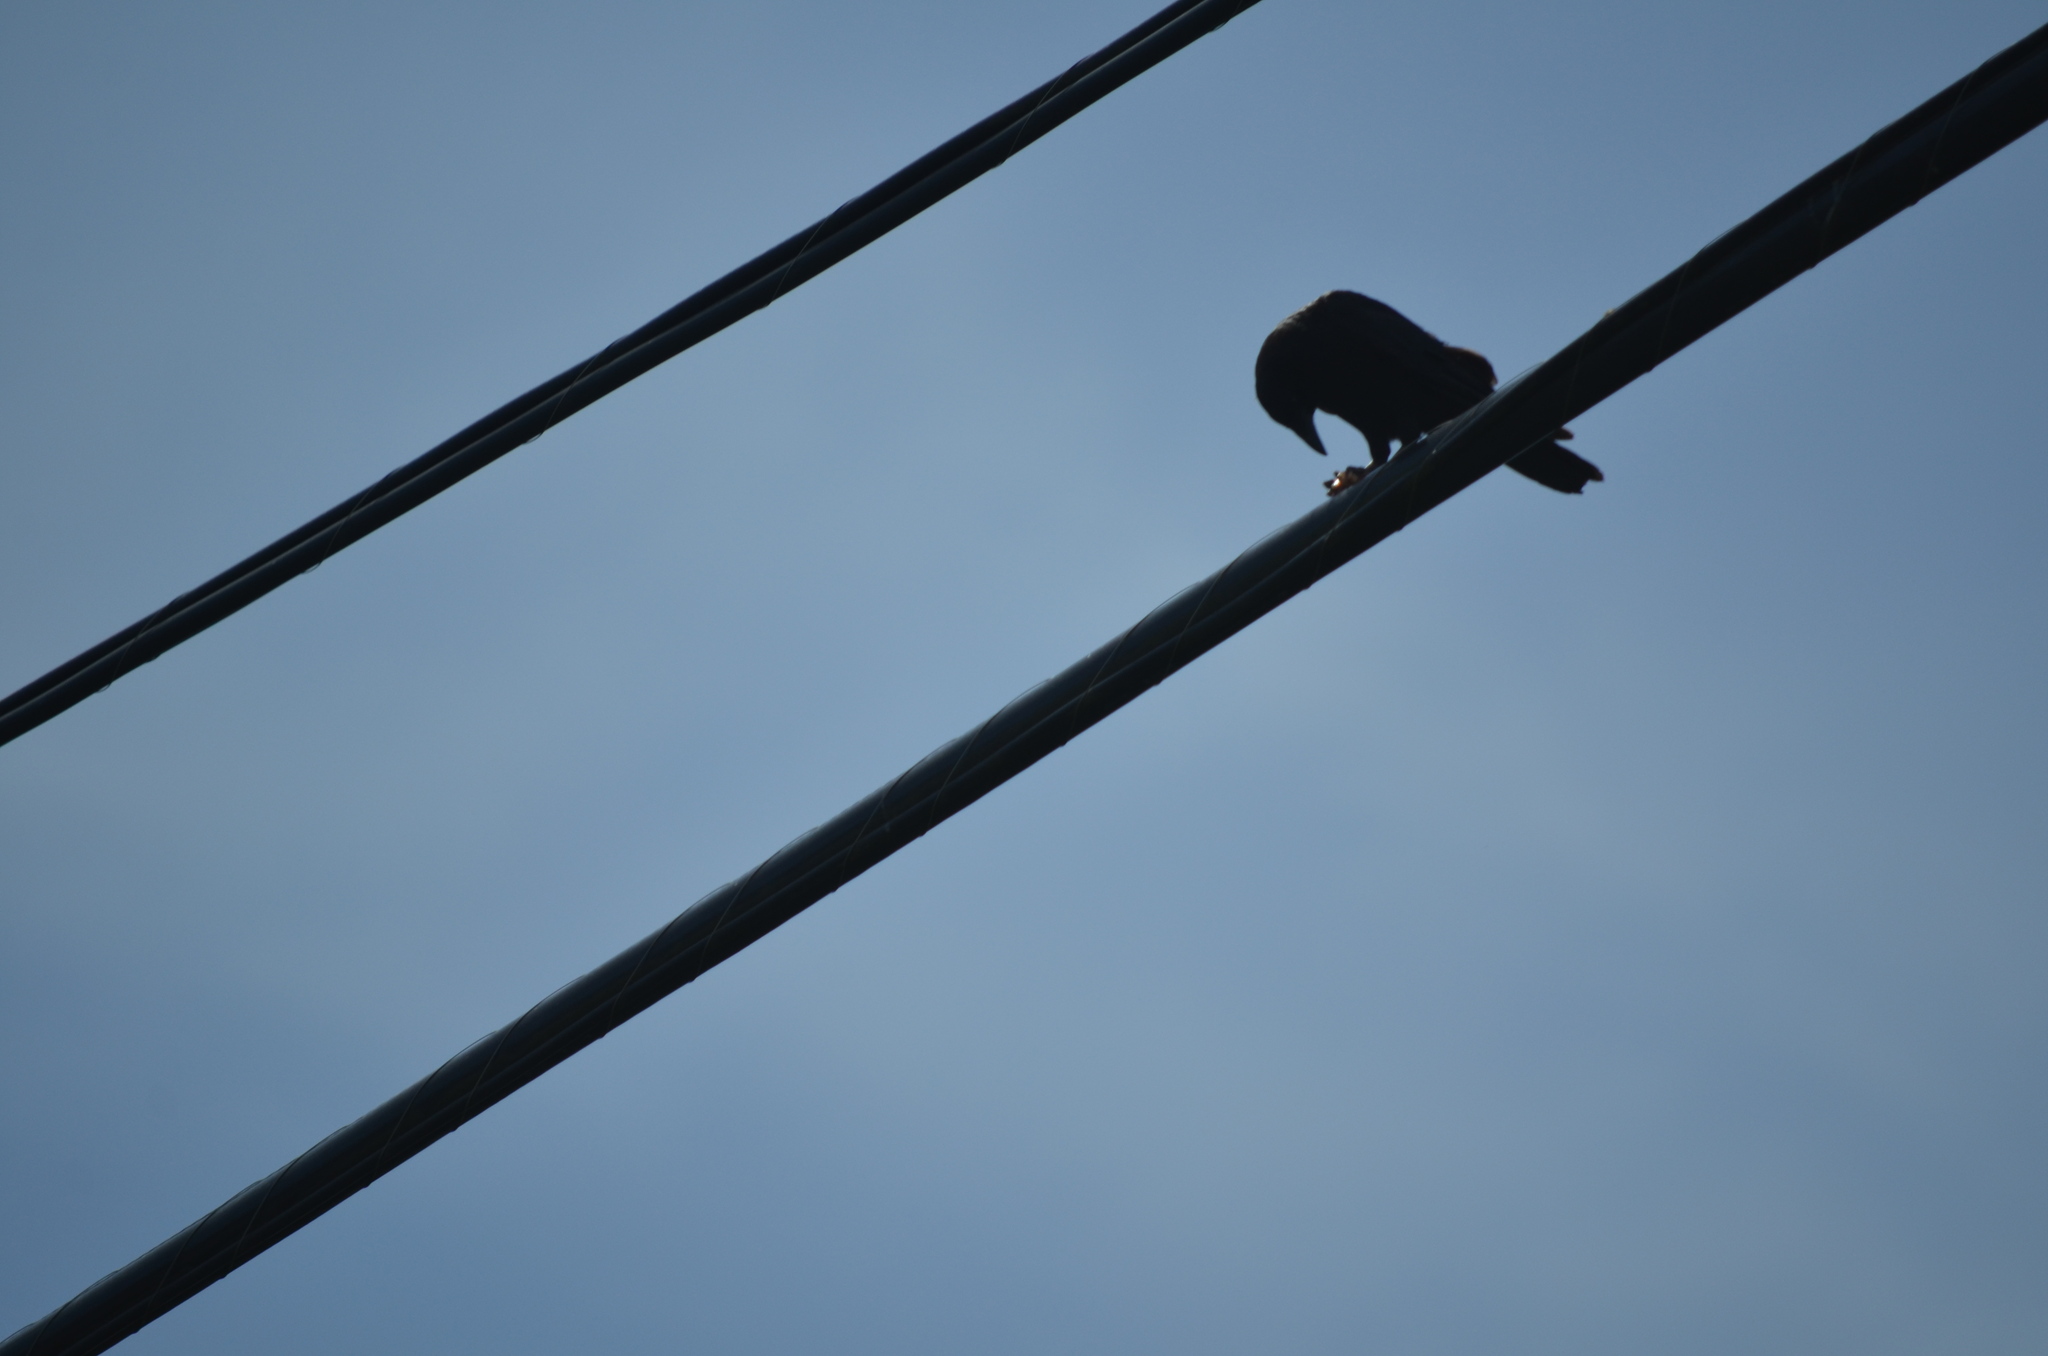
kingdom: Animalia
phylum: Chordata
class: Aves
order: Passeriformes
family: Corvidae
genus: Corvus
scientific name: Corvus brachyrhynchos
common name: American crow
